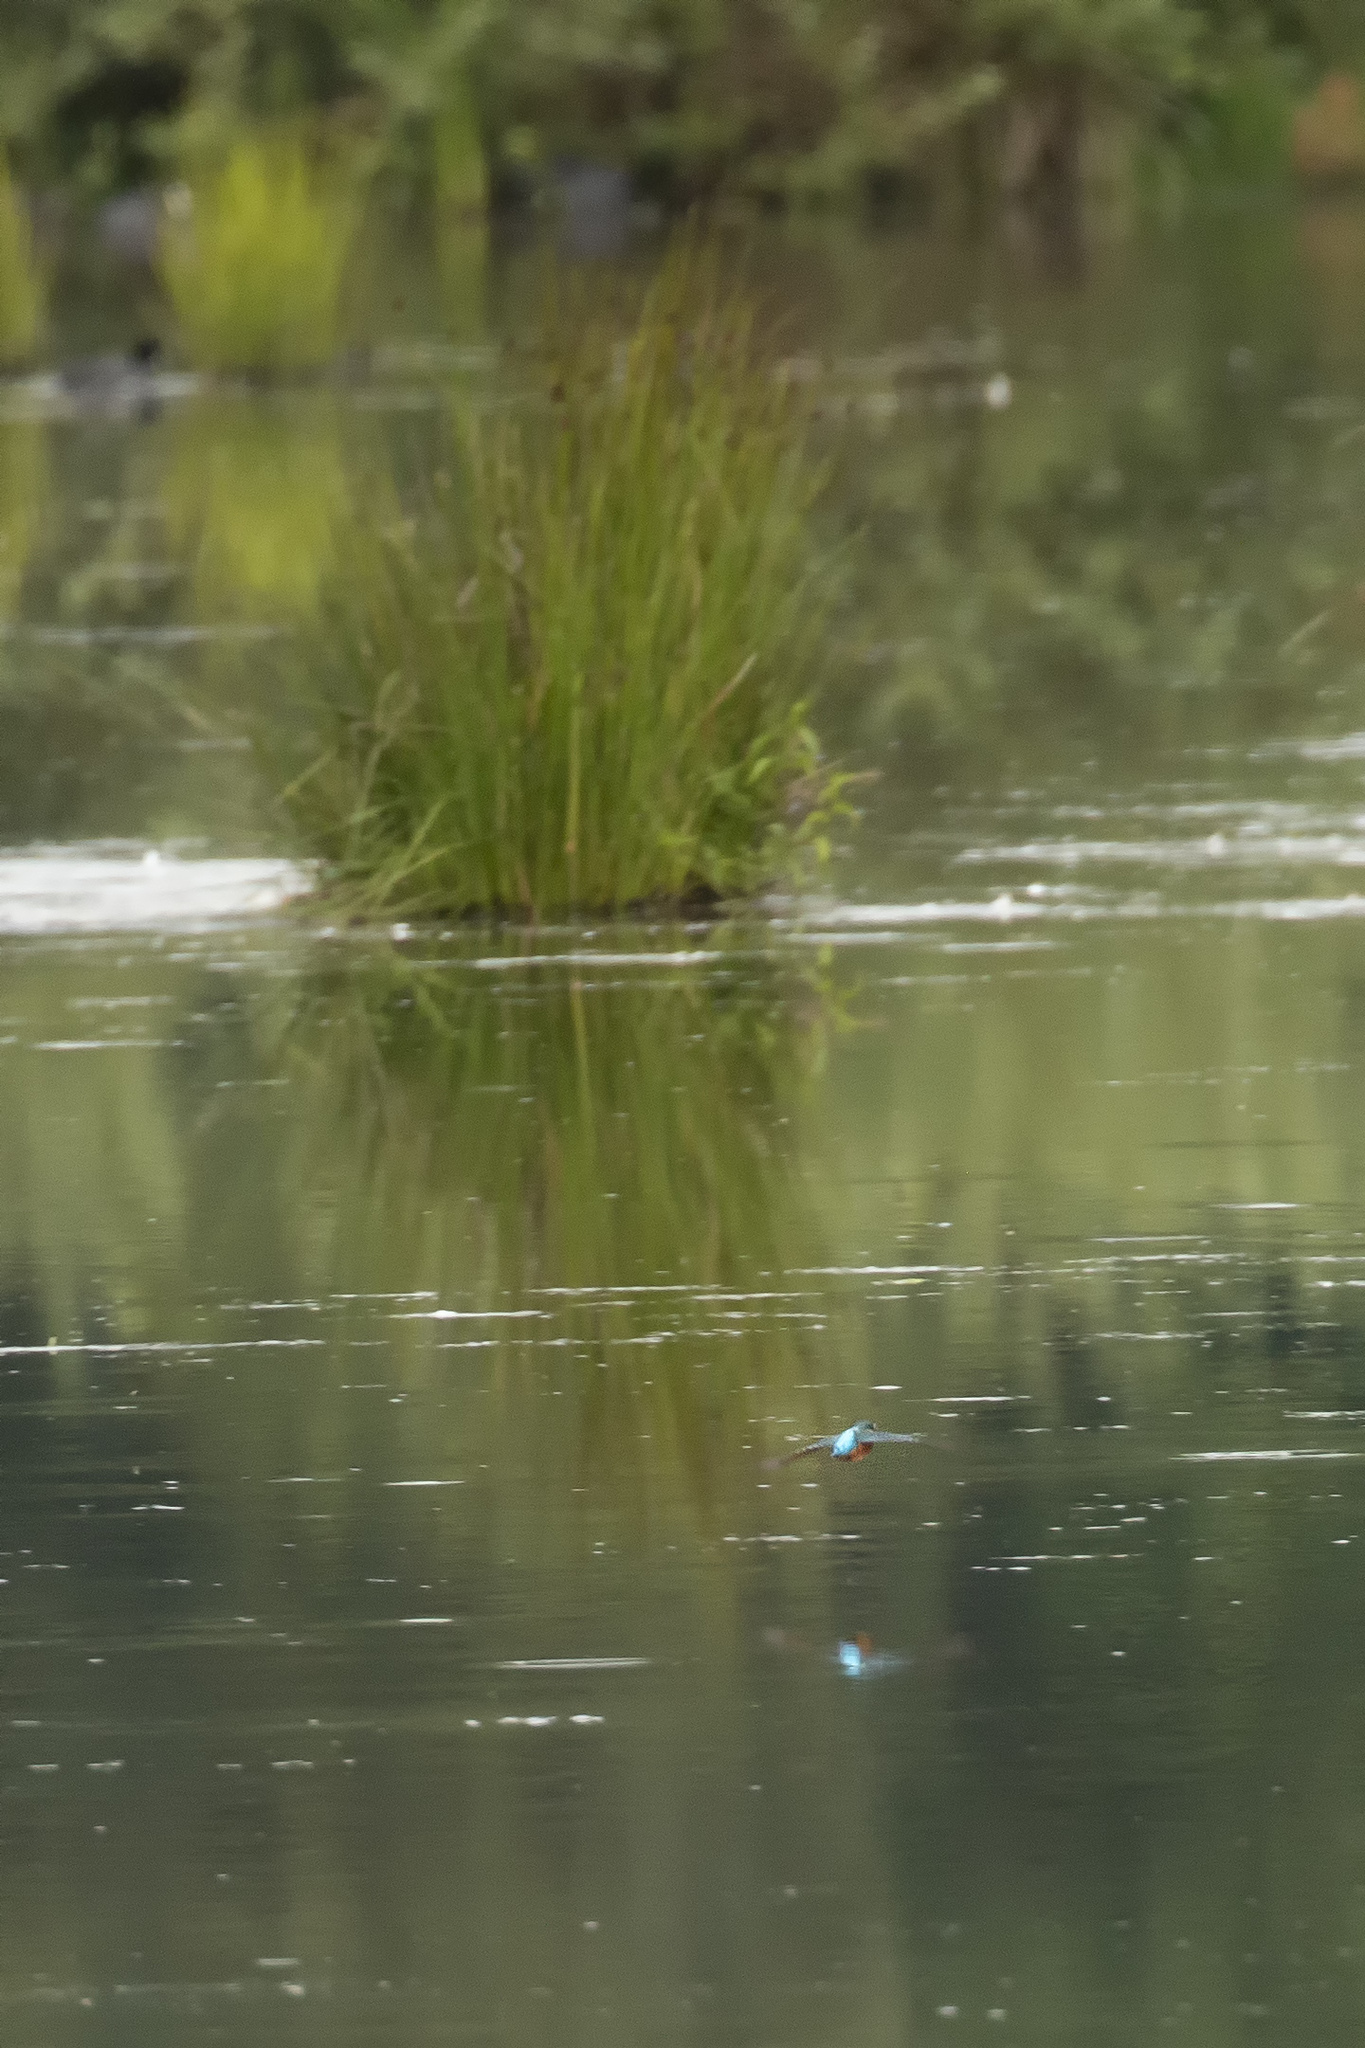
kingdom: Animalia
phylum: Chordata
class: Aves
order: Coraciiformes
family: Alcedinidae
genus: Alcedo
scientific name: Alcedo atthis
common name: Common kingfisher
